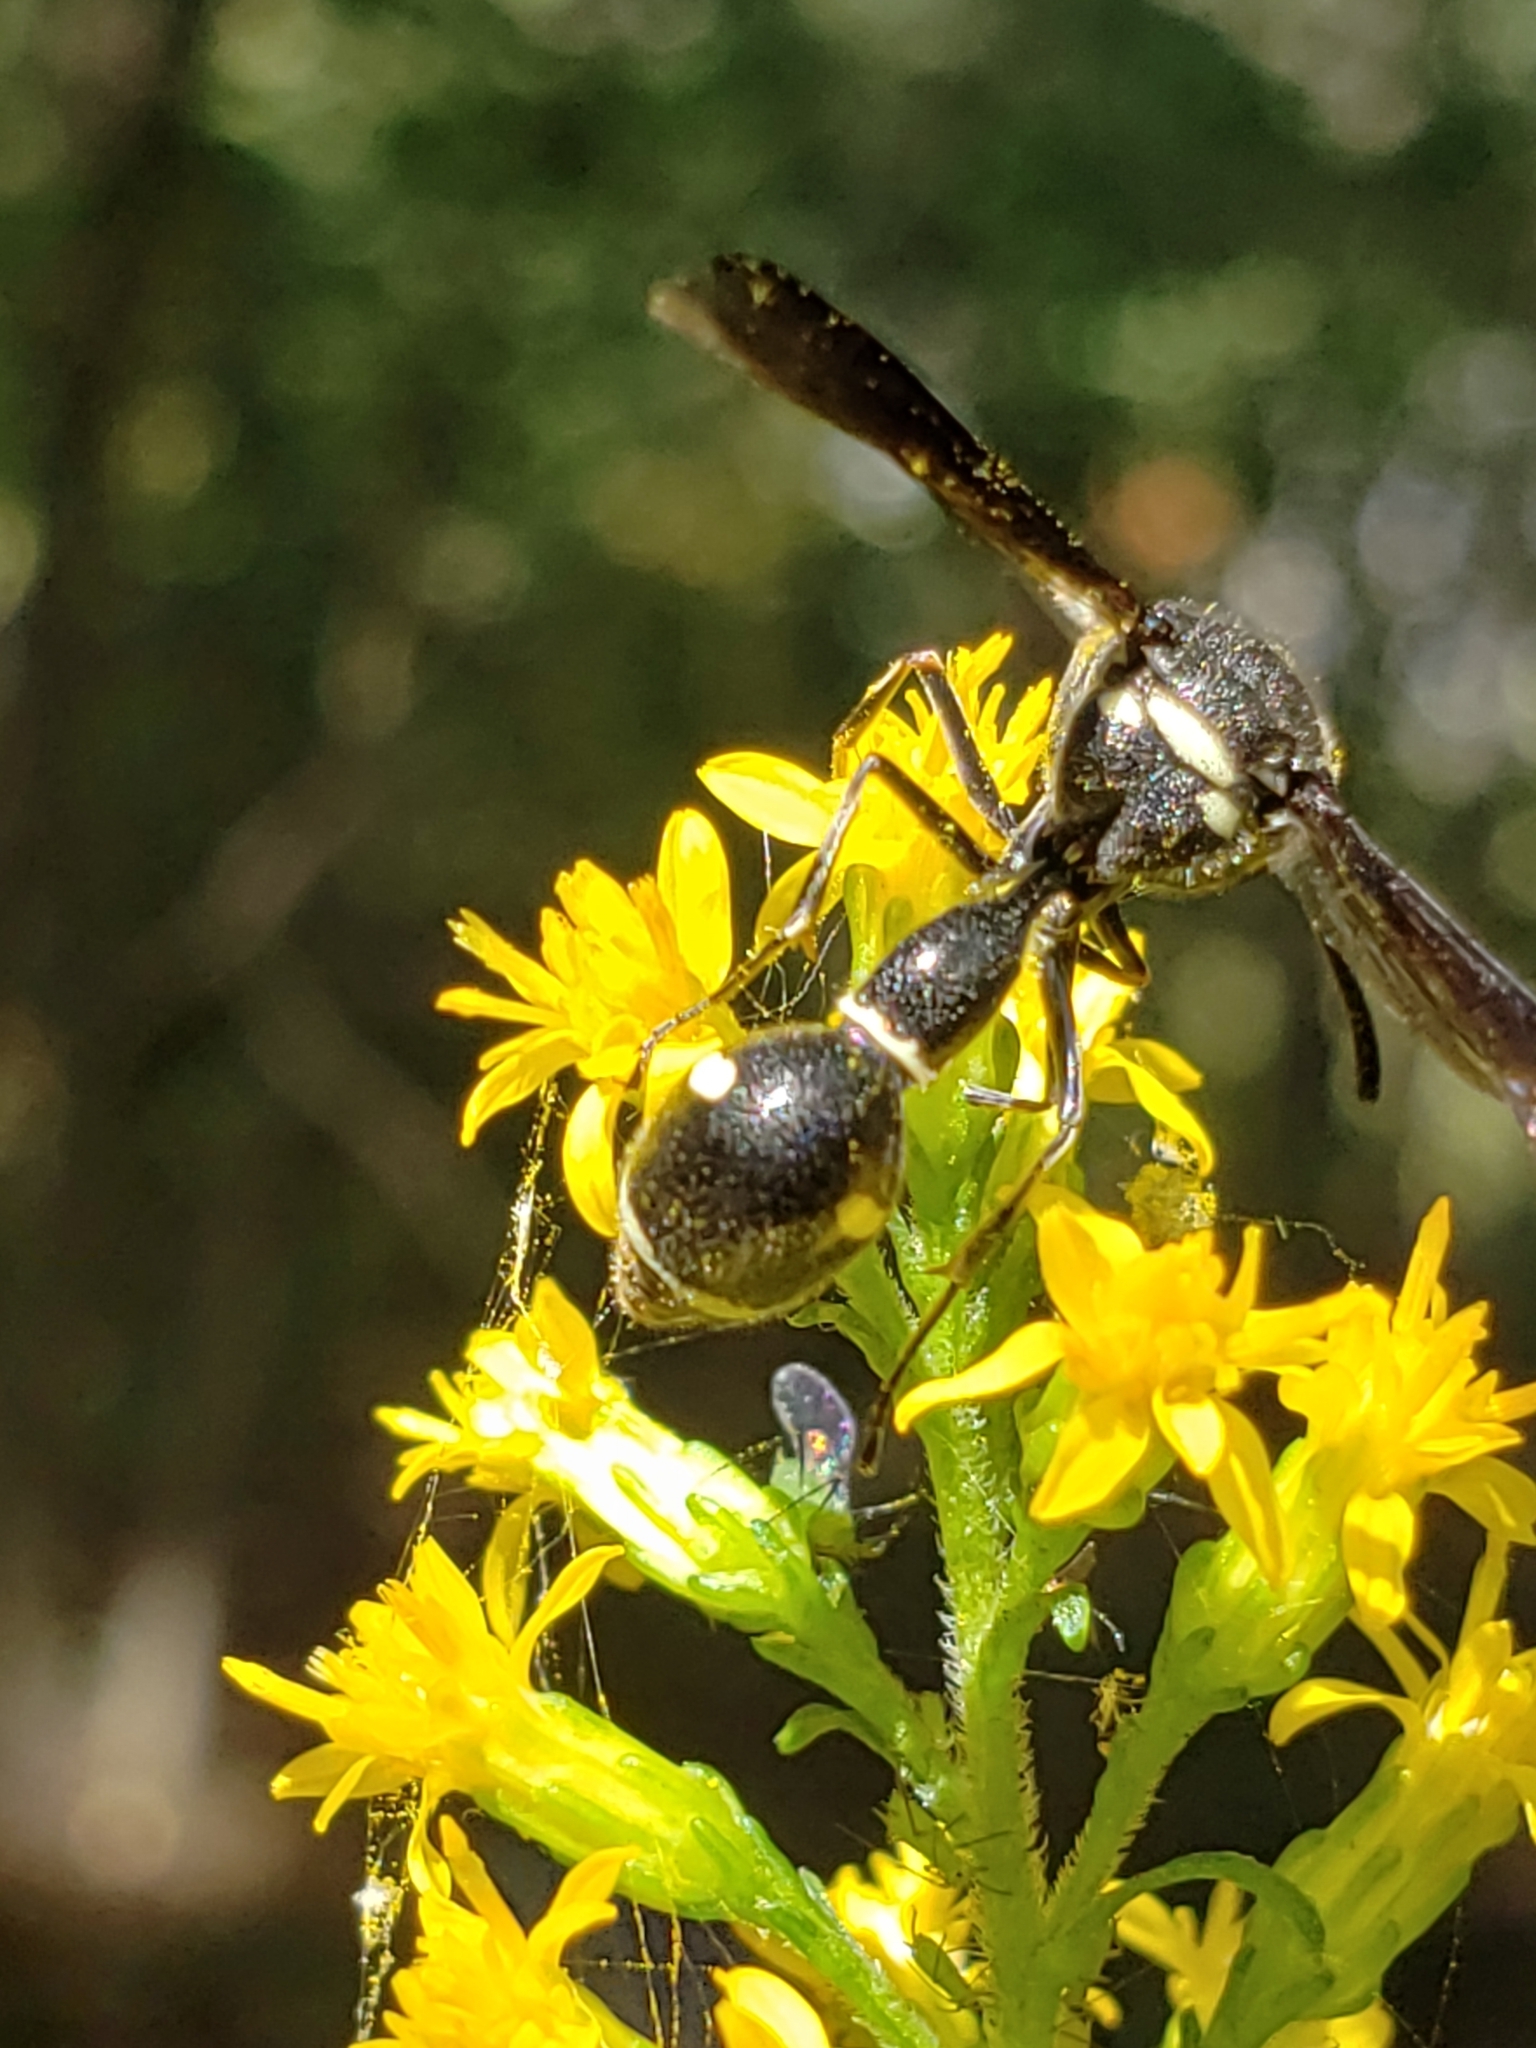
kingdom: Animalia
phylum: Arthropoda
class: Insecta
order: Hymenoptera
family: Vespidae
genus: Eumenes
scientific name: Eumenes fraternus
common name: Fraternal potter wasp
